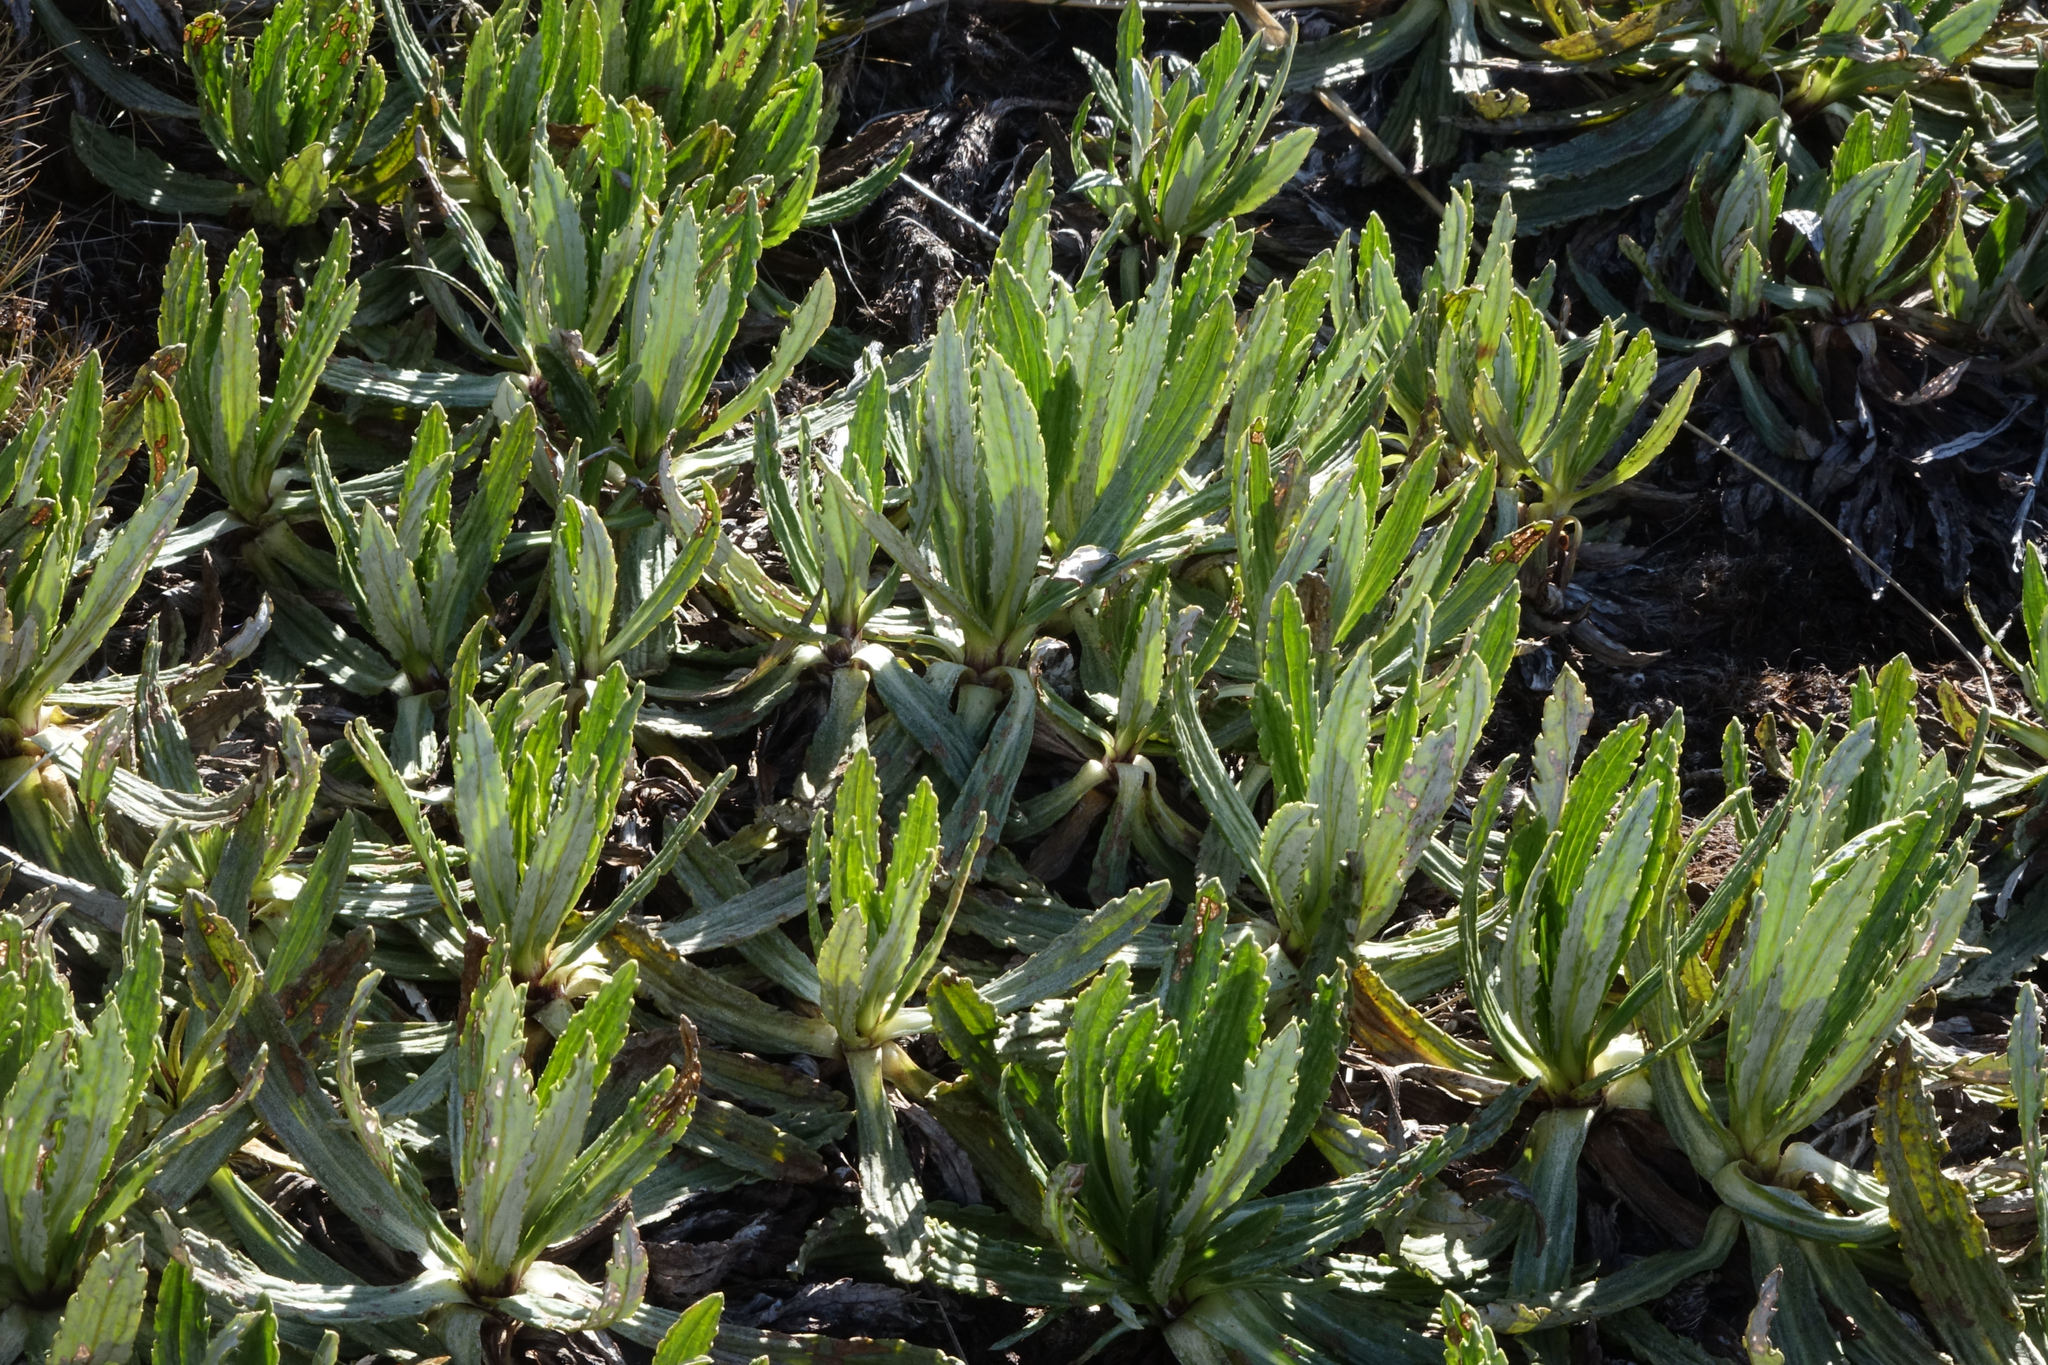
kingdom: Plantae
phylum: Tracheophyta
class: Magnoliopsida
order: Asterales
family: Asteraceae
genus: Celmisia
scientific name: Celmisia prorepens
